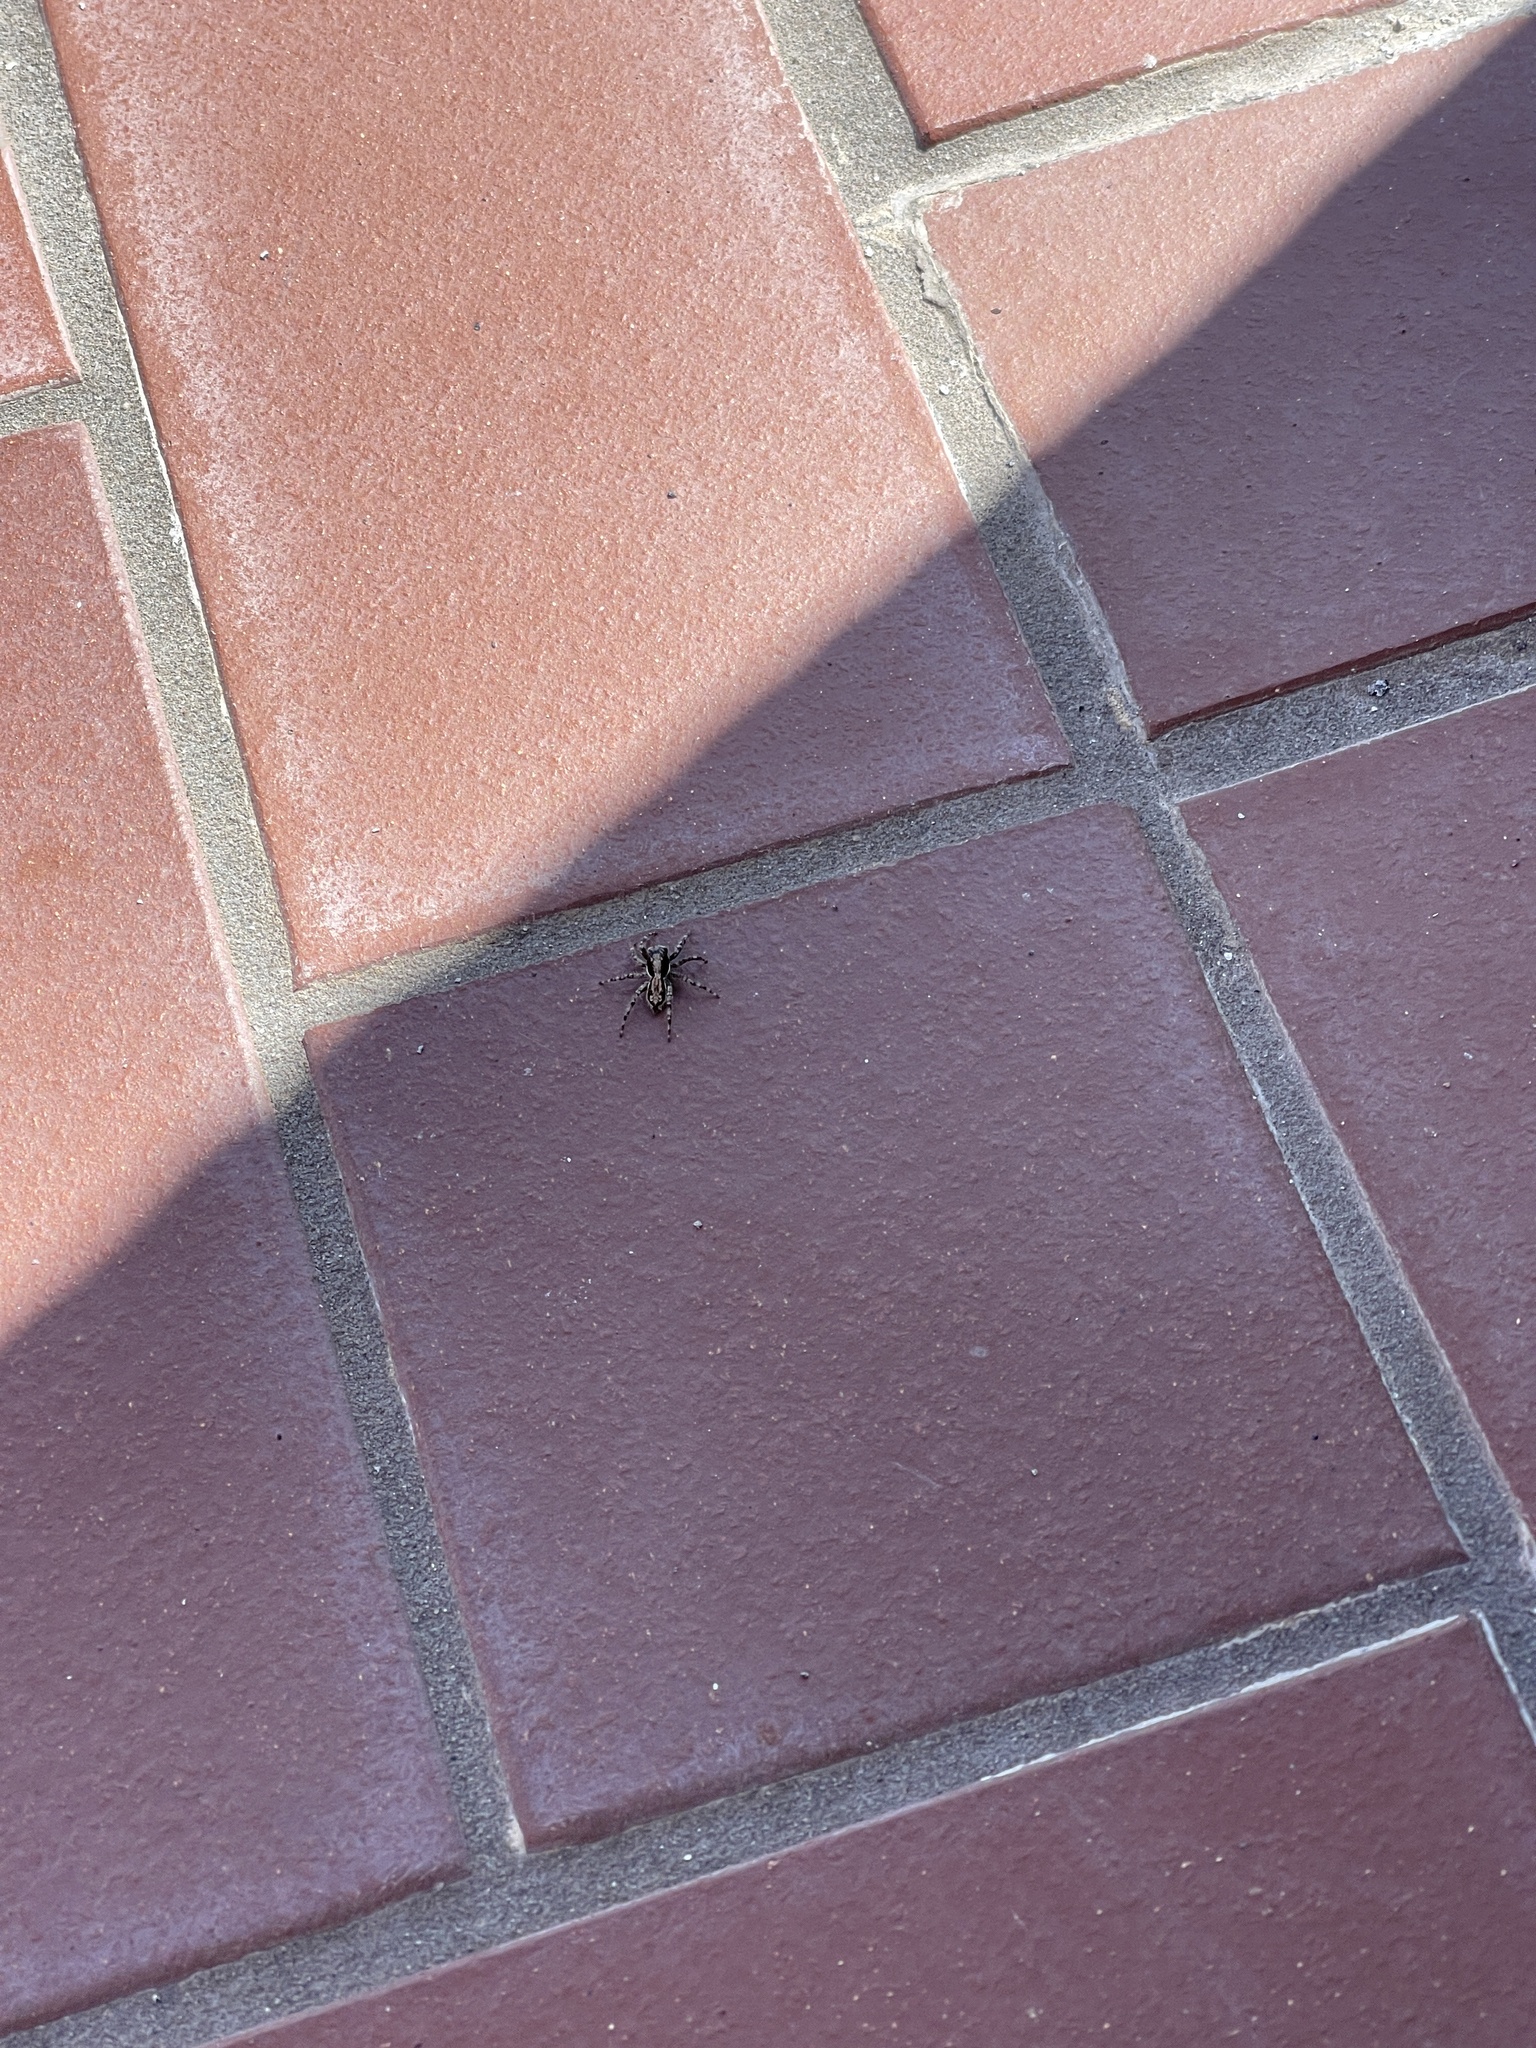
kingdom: Animalia
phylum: Arthropoda
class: Arachnida
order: Araneae
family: Salticidae
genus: Menemerus
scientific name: Menemerus bivittatus
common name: Gray wall jumper
